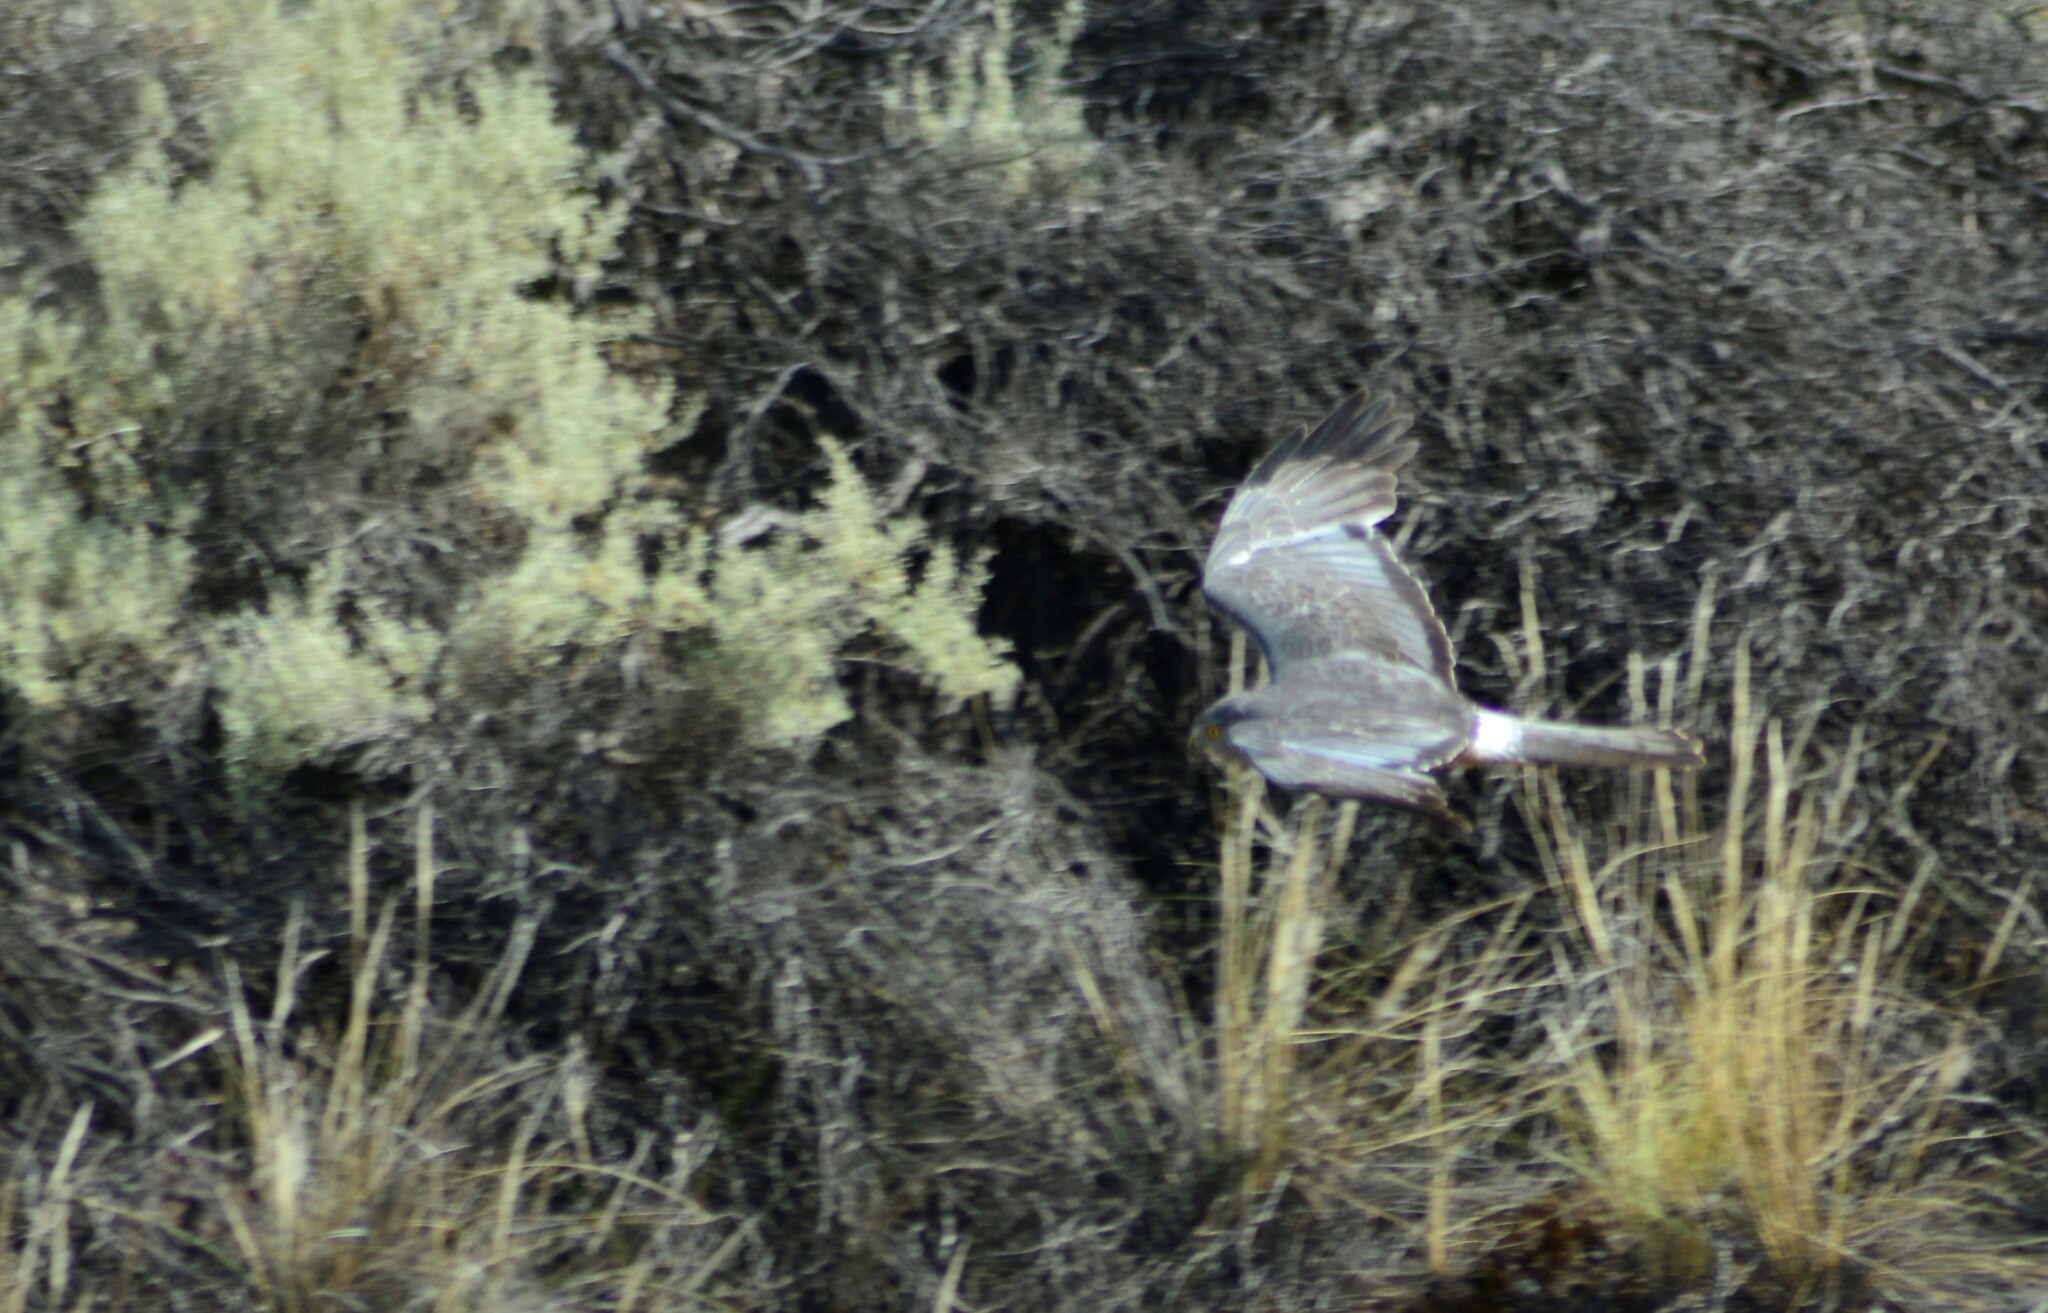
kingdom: Animalia
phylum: Chordata
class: Aves
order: Accipitriformes
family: Accipitridae
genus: Circus
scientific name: Circus cinereus
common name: Cinereous harrier
